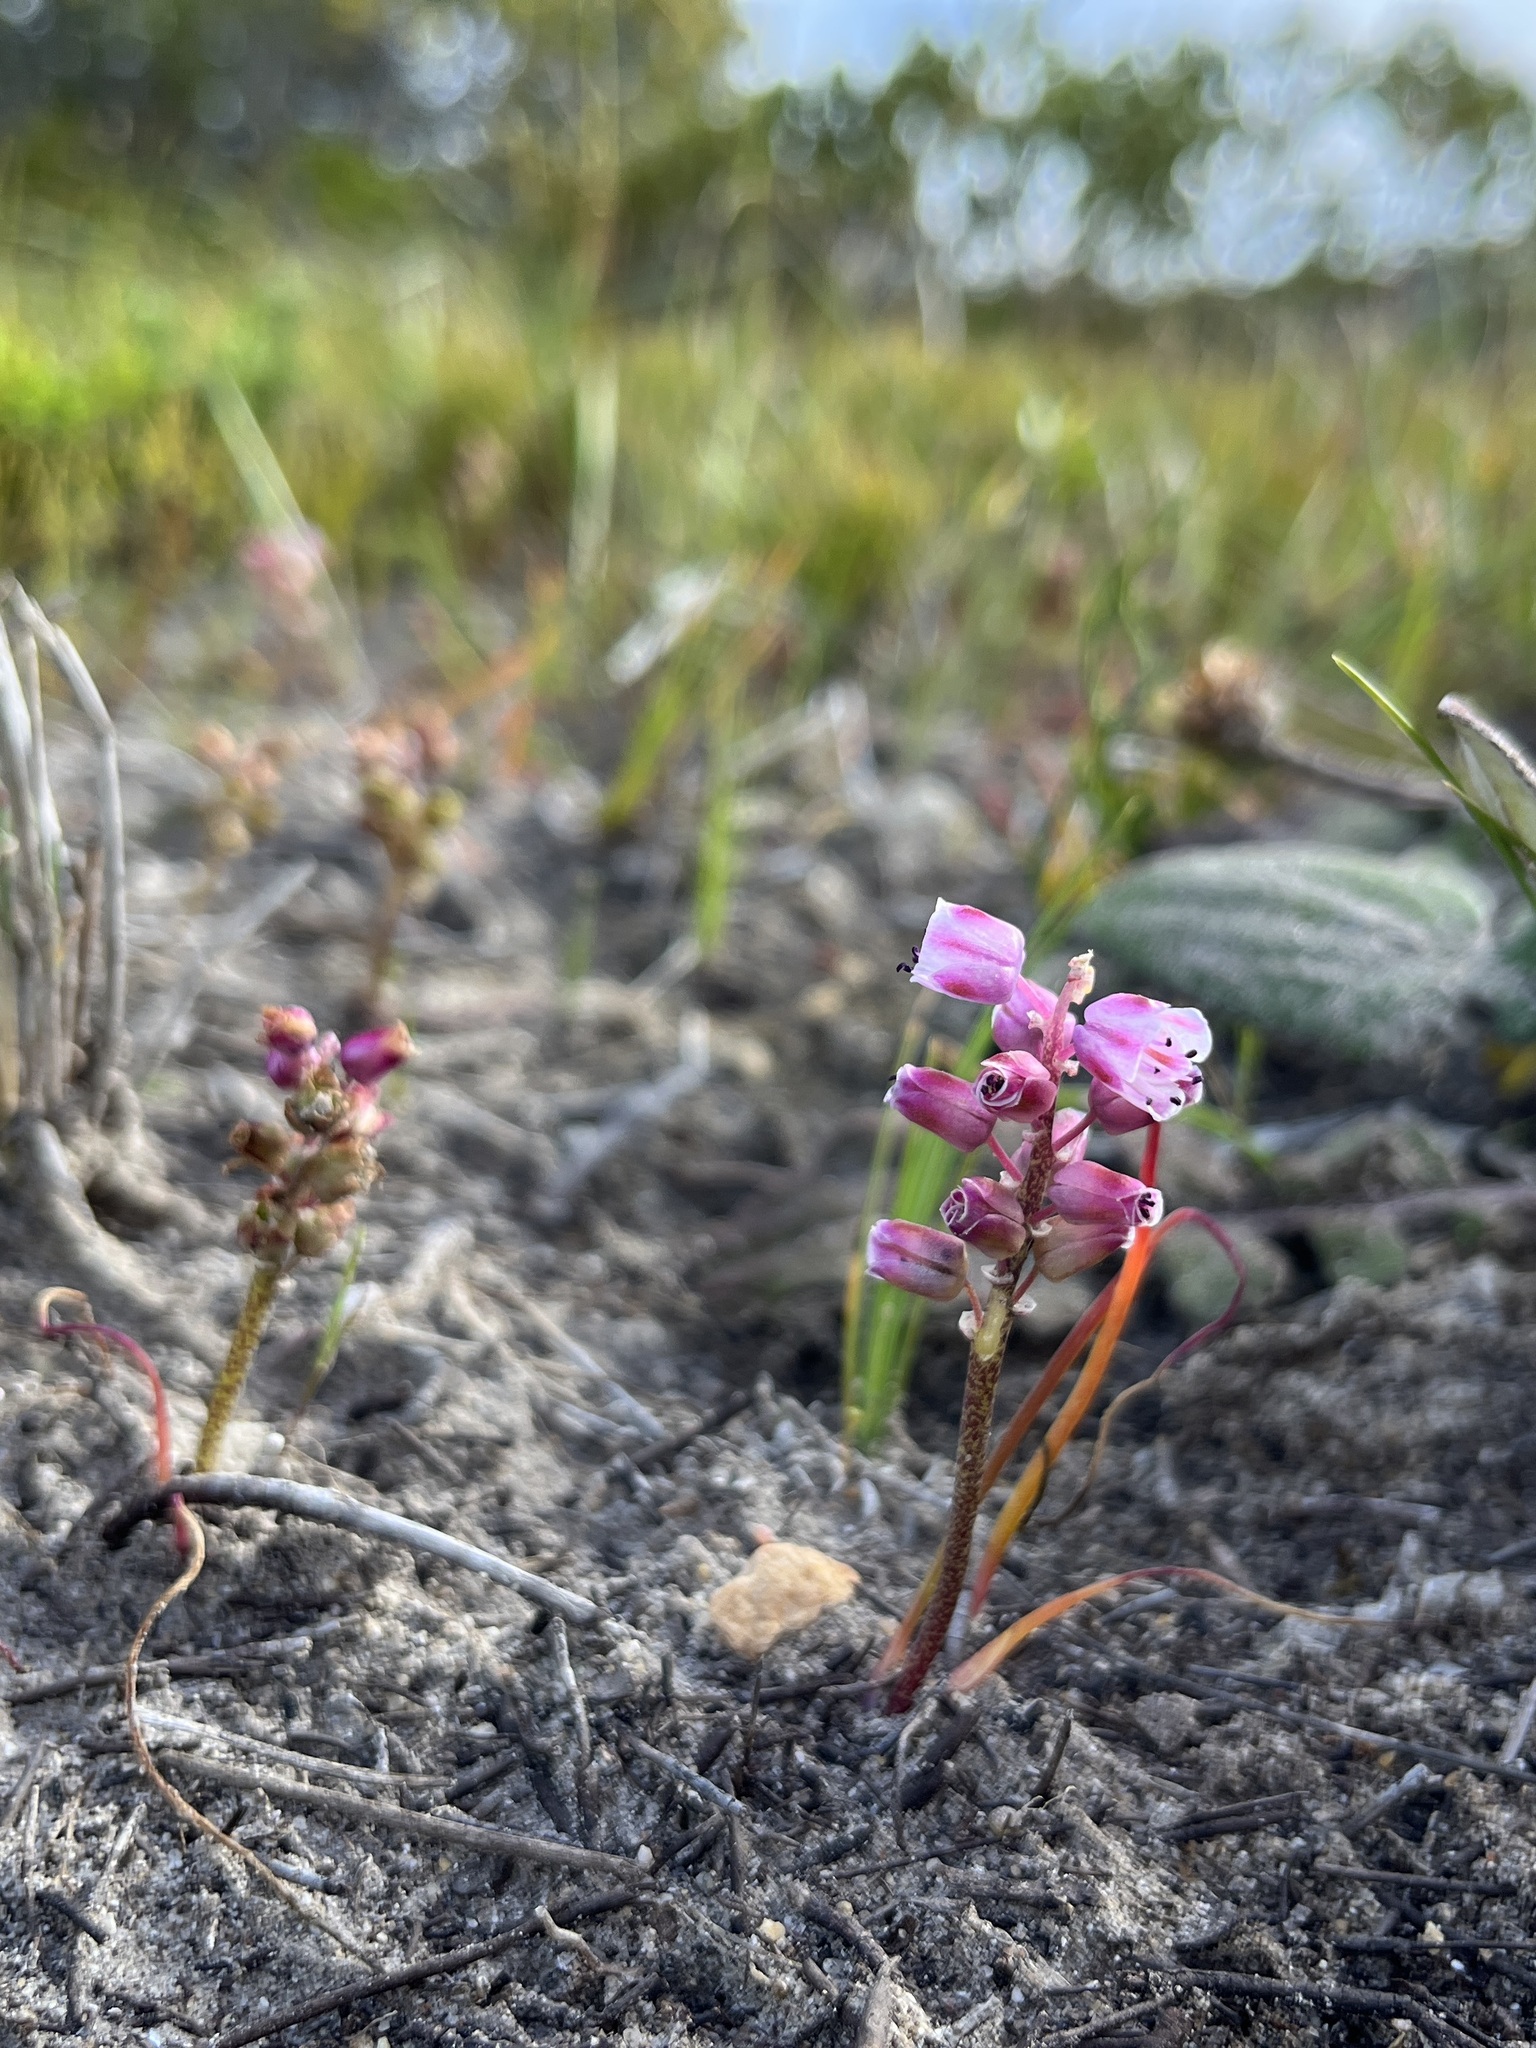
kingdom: Plantae
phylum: Tracheophyta
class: Liliopsida
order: Asparagales
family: Asparagaceae
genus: Lachenalia
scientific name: Lachenalia magentea
